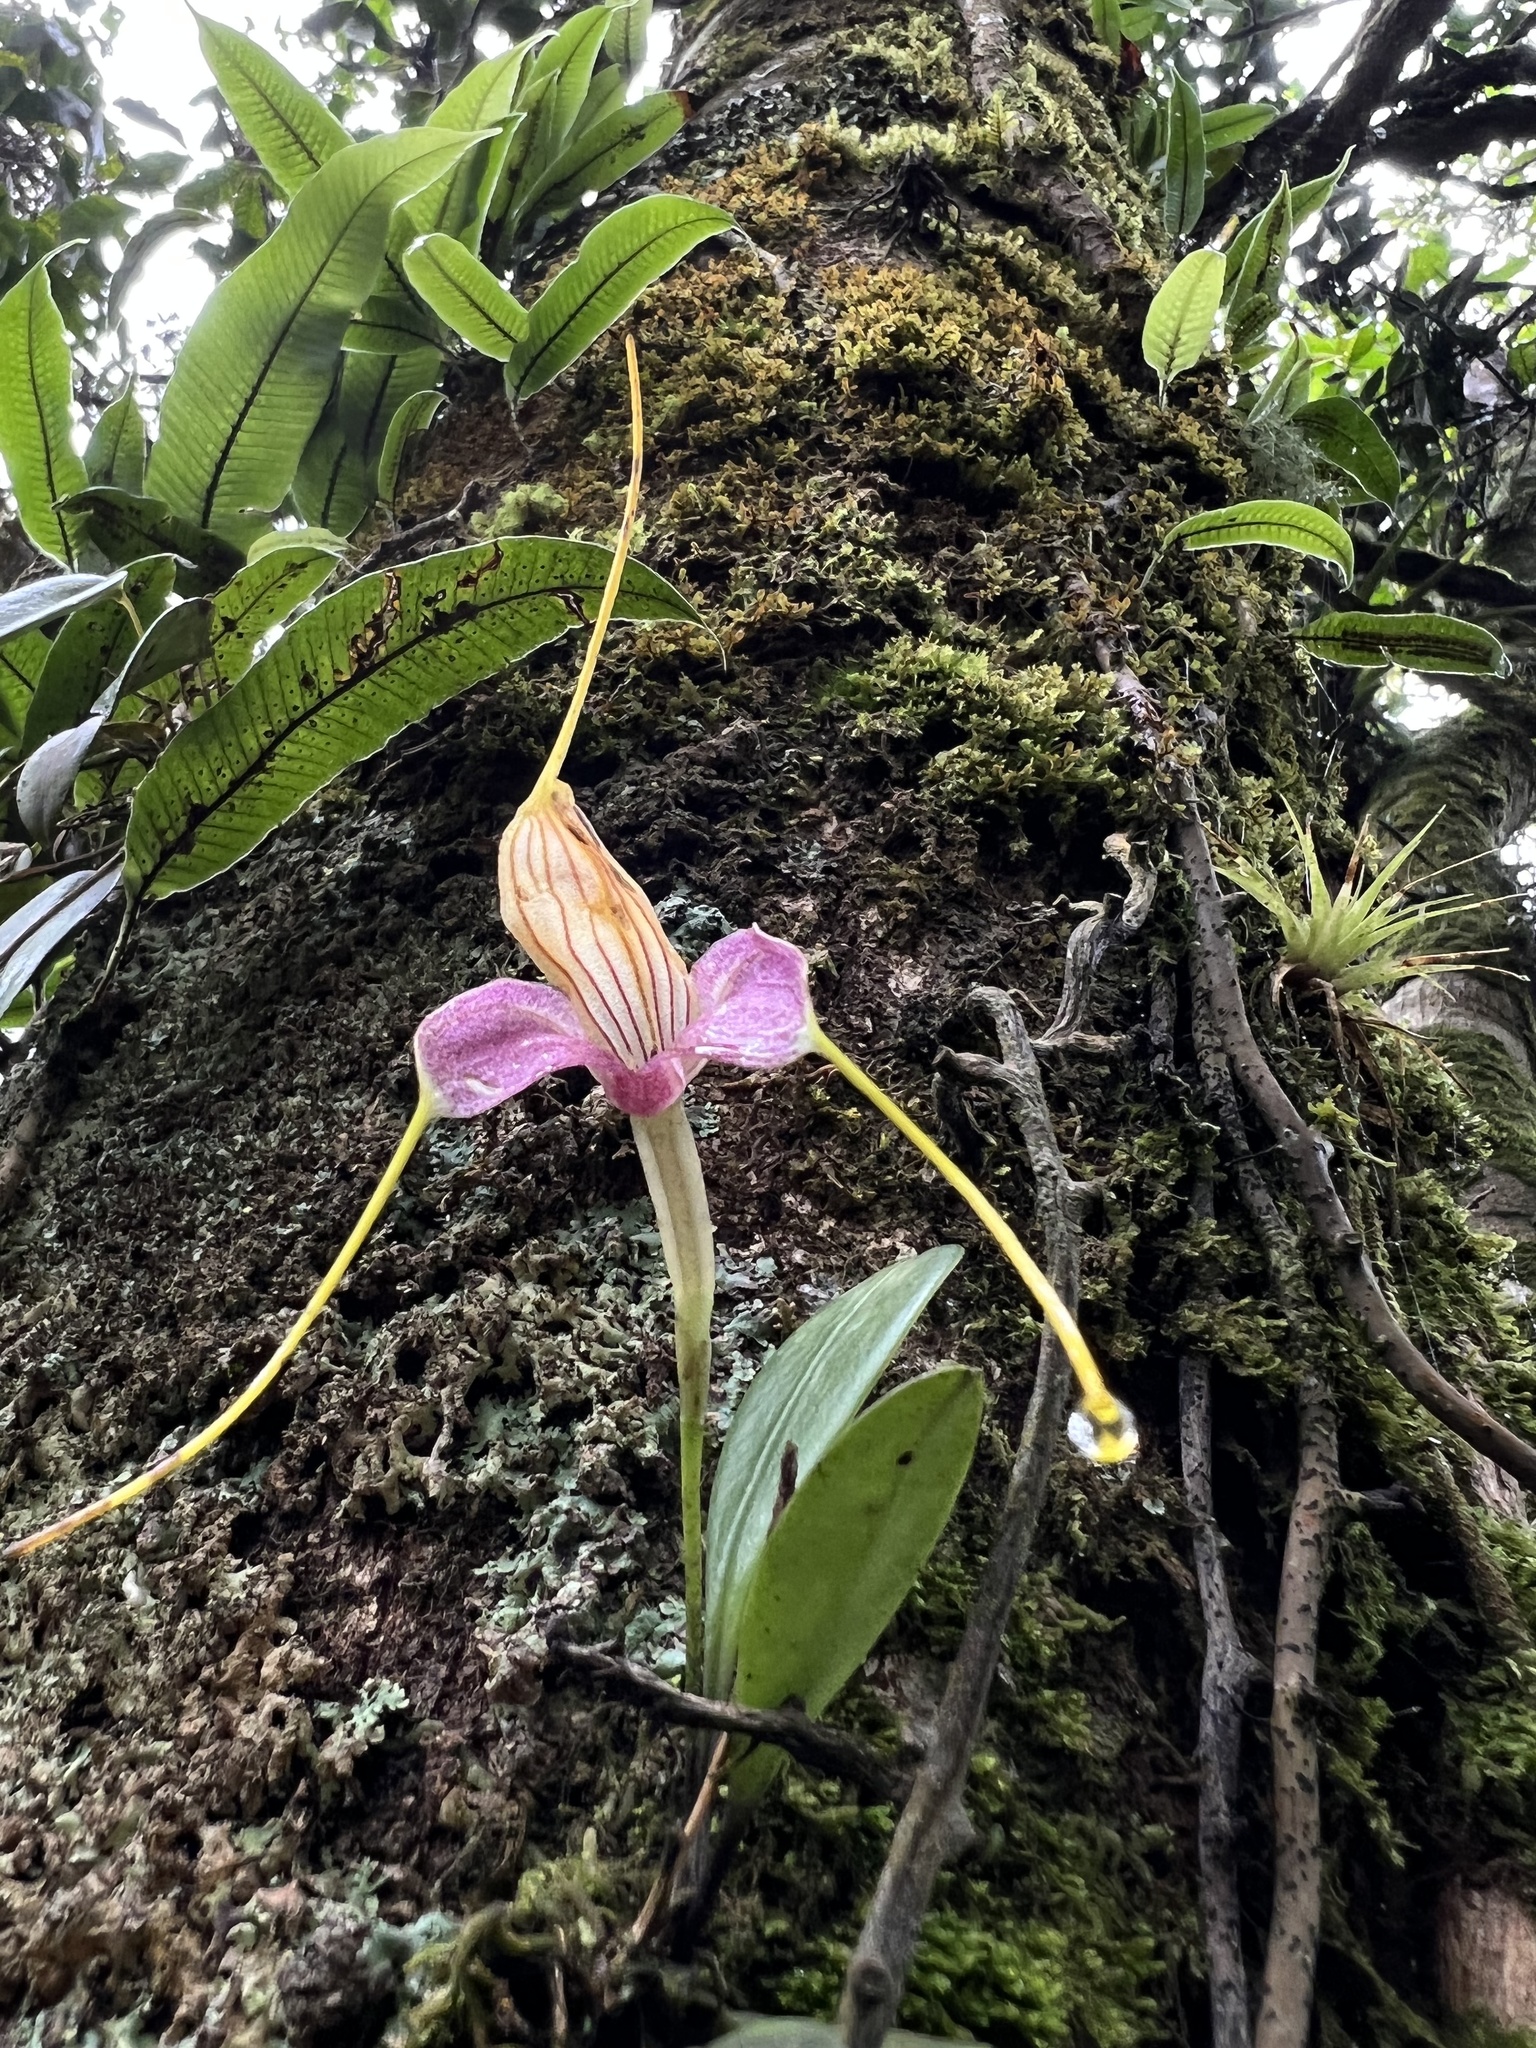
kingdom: Plantae
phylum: Tracheophyta
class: Liliopsida
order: Asparagales
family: Orchidaceae
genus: Masdevallia
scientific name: Masdevallia caudata
